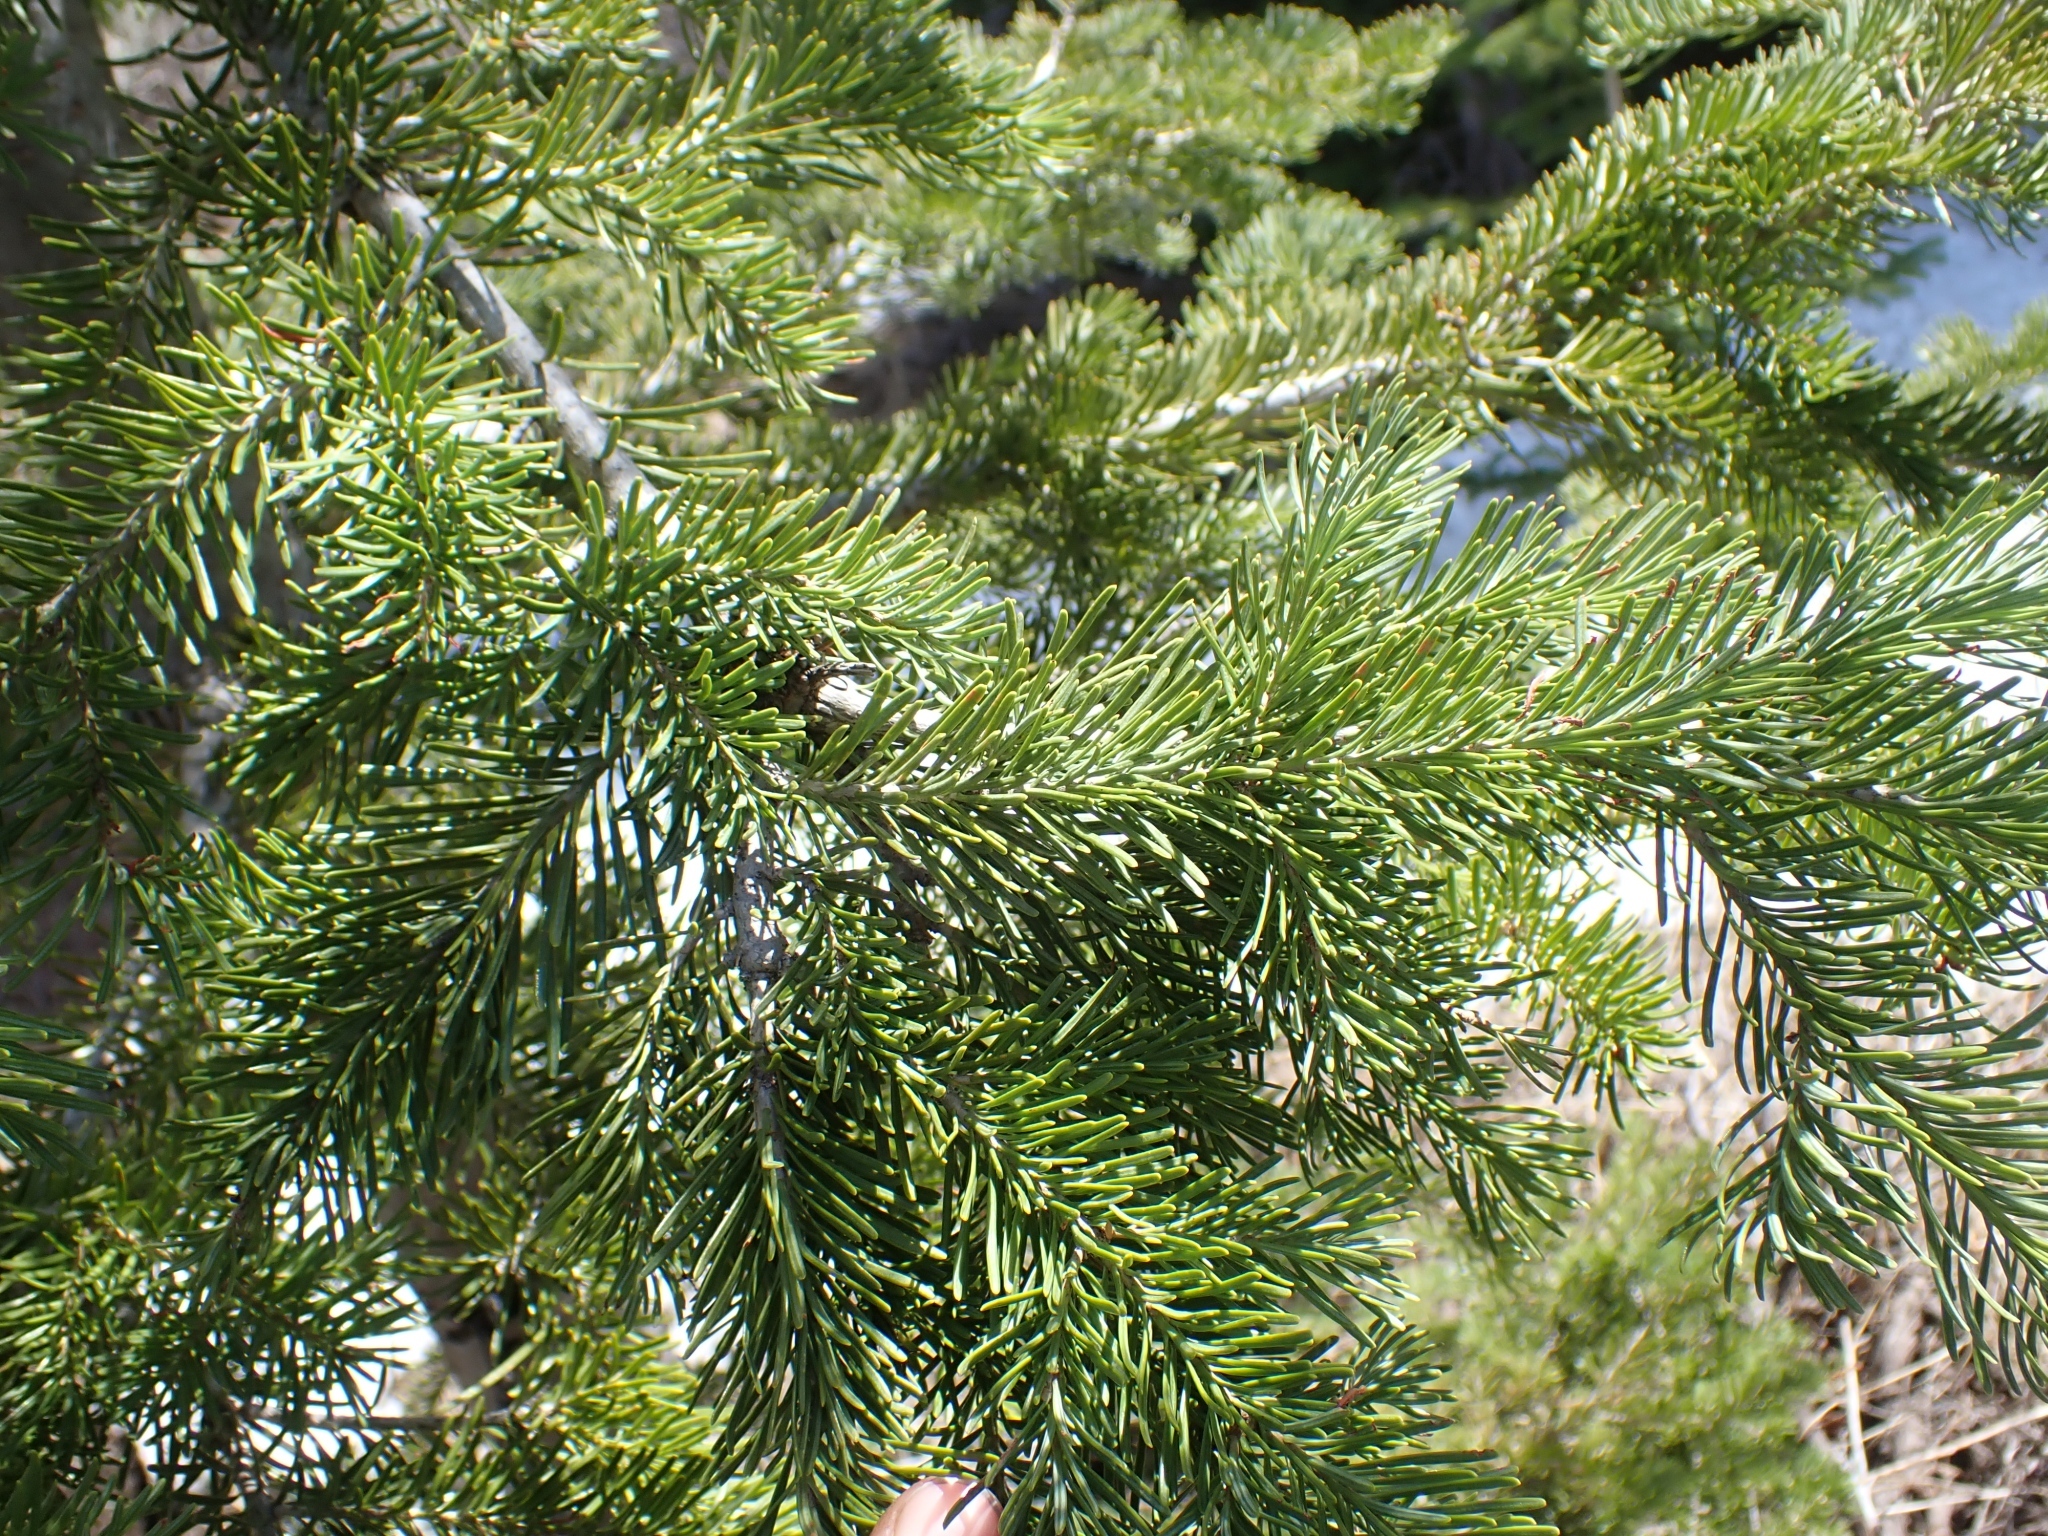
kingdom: Plantae
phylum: Tracheophyta
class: Pinopsida
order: Pinales
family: Pinaceae
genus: Abies
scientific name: Abies lasiocarpa
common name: Subalpine fir
